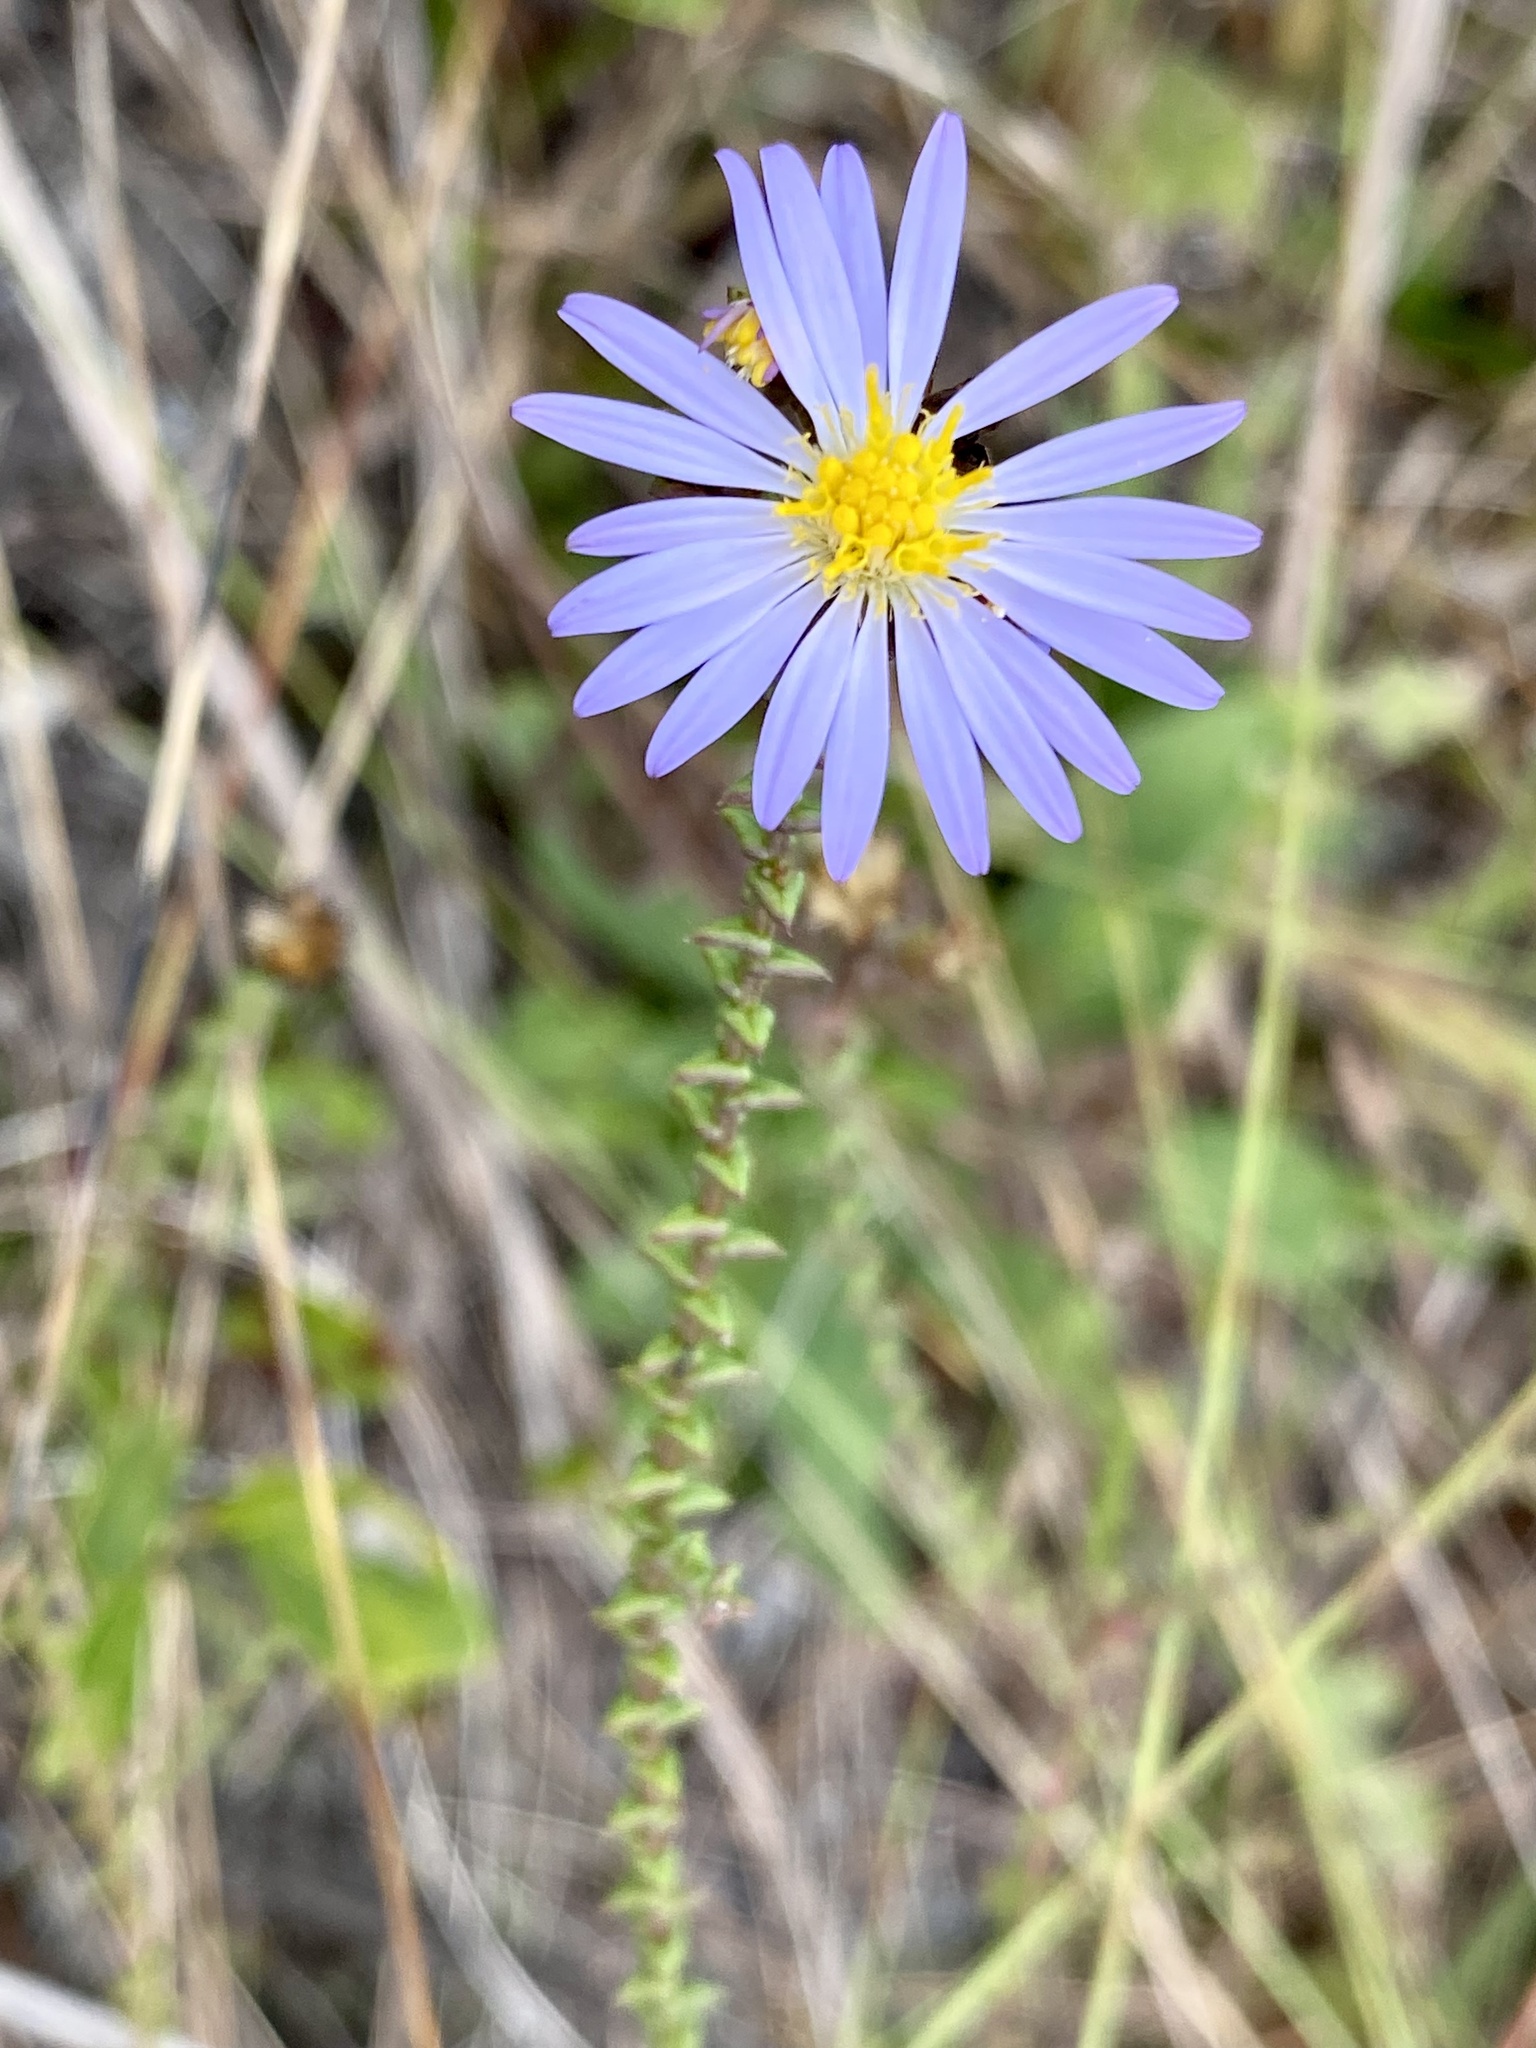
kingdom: Plantae
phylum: Tracheophyta
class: Magnoliopsida
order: Asterales
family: Asteraceae
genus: Symphyotrichum
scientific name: Symphyotrichum walteri
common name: Walter's aster
